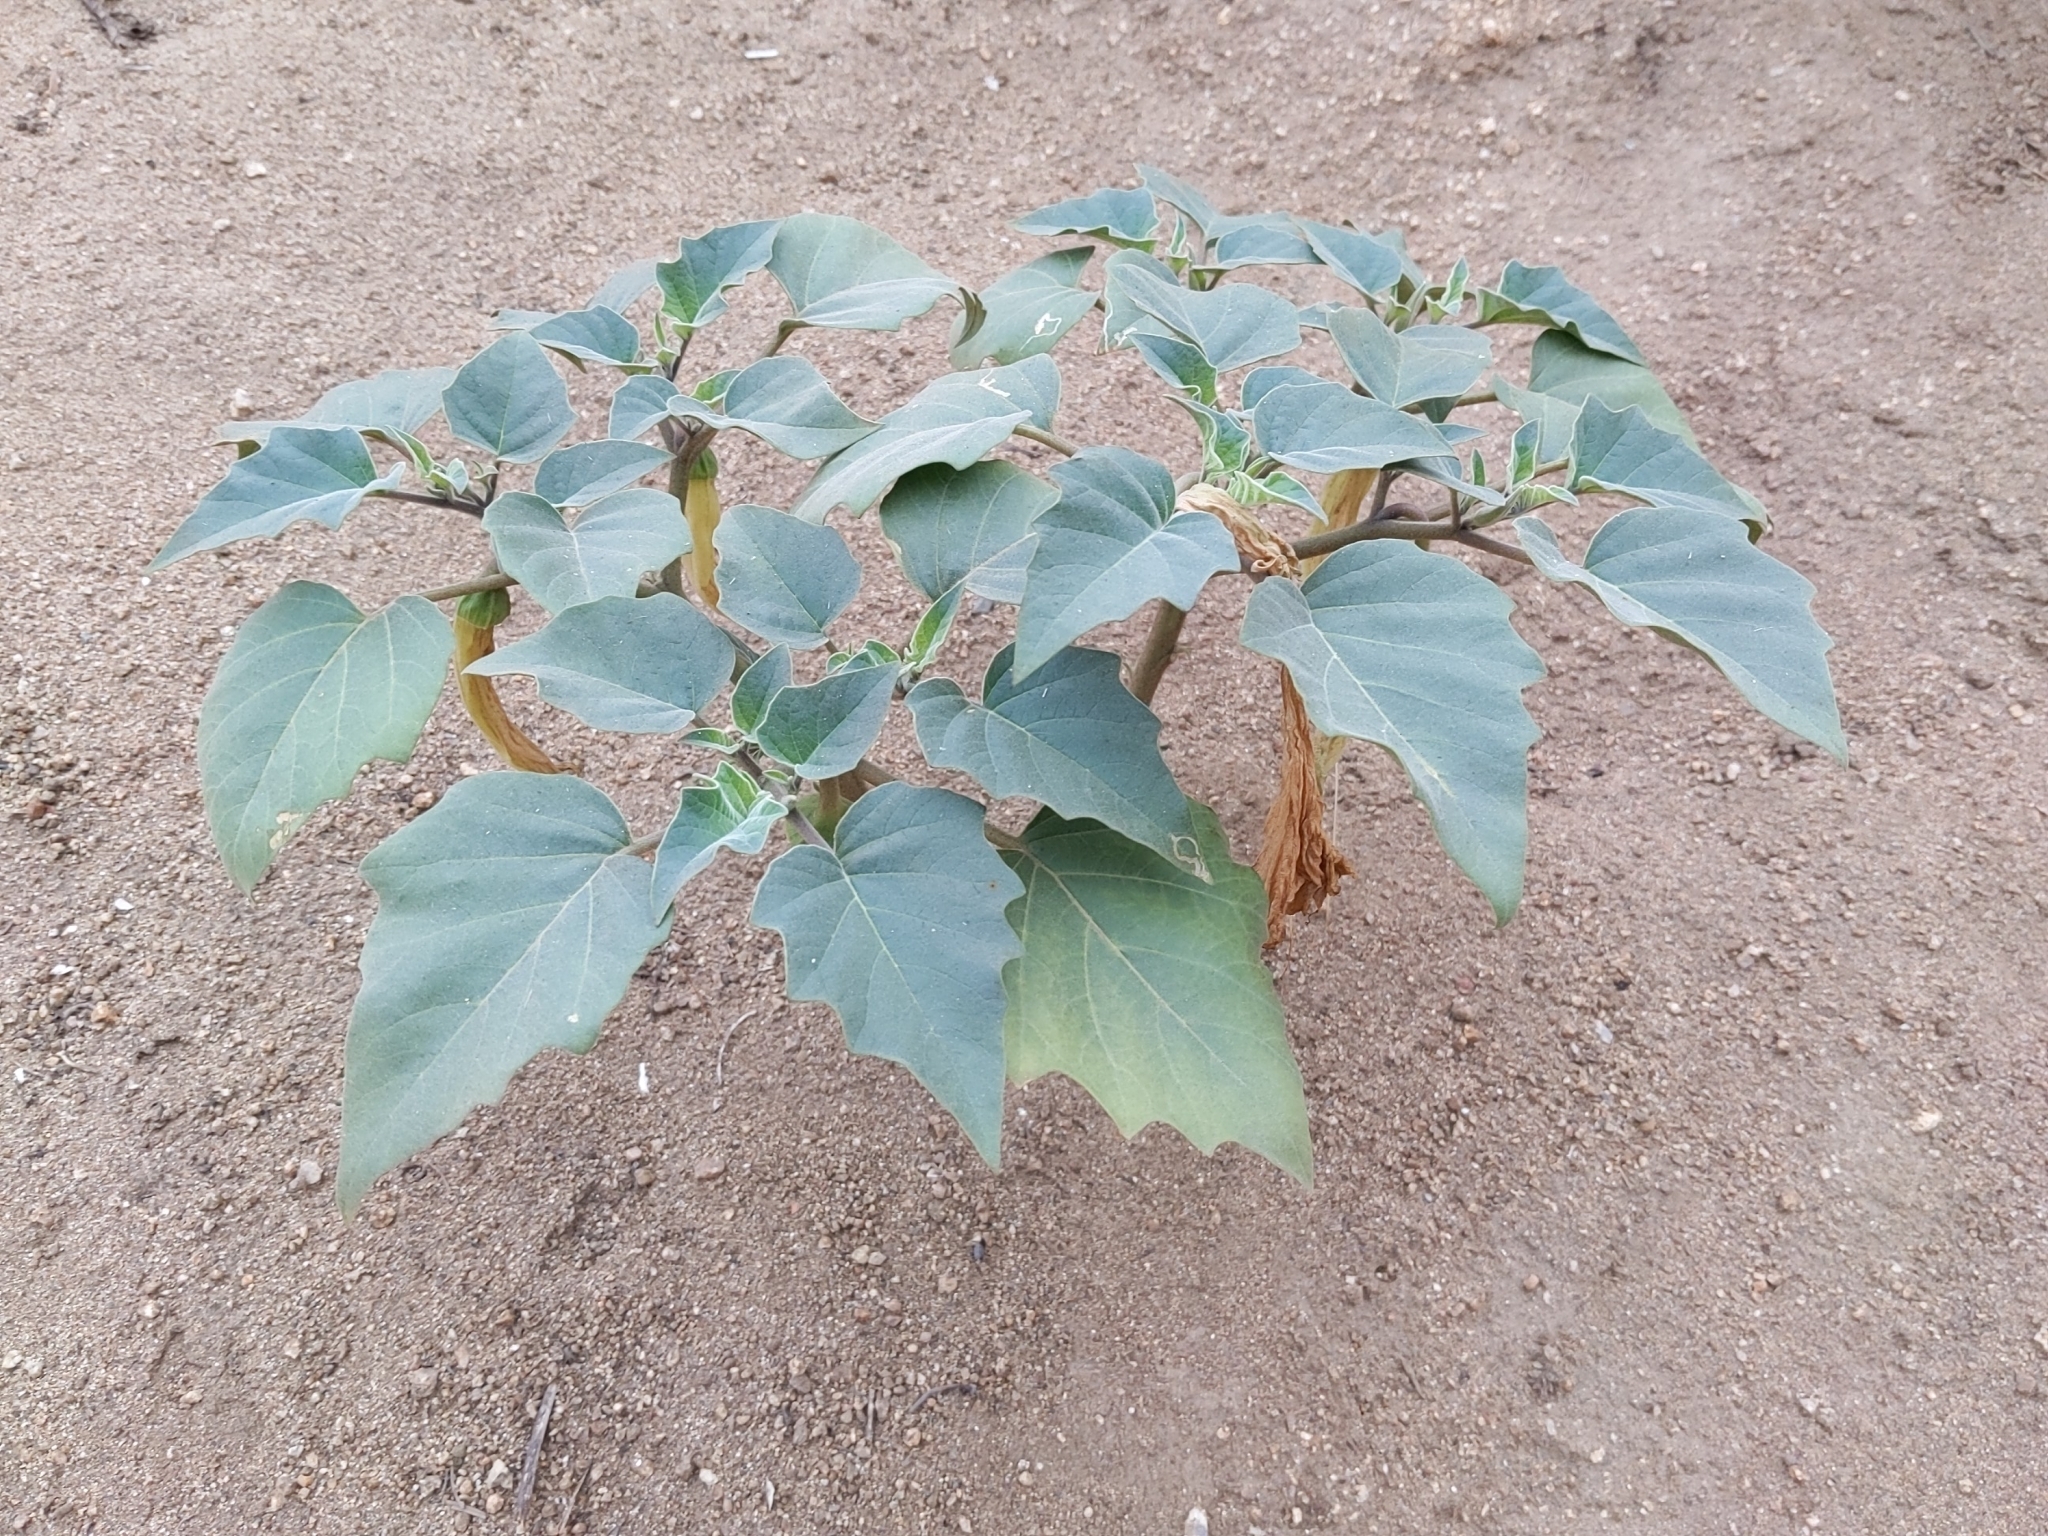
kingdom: Plantae
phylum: Tracheophyta
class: Magnoliopsida
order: Solanales
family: Solanaceae
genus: Datura
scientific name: Datura wrightii
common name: Sacred thorn-apple
